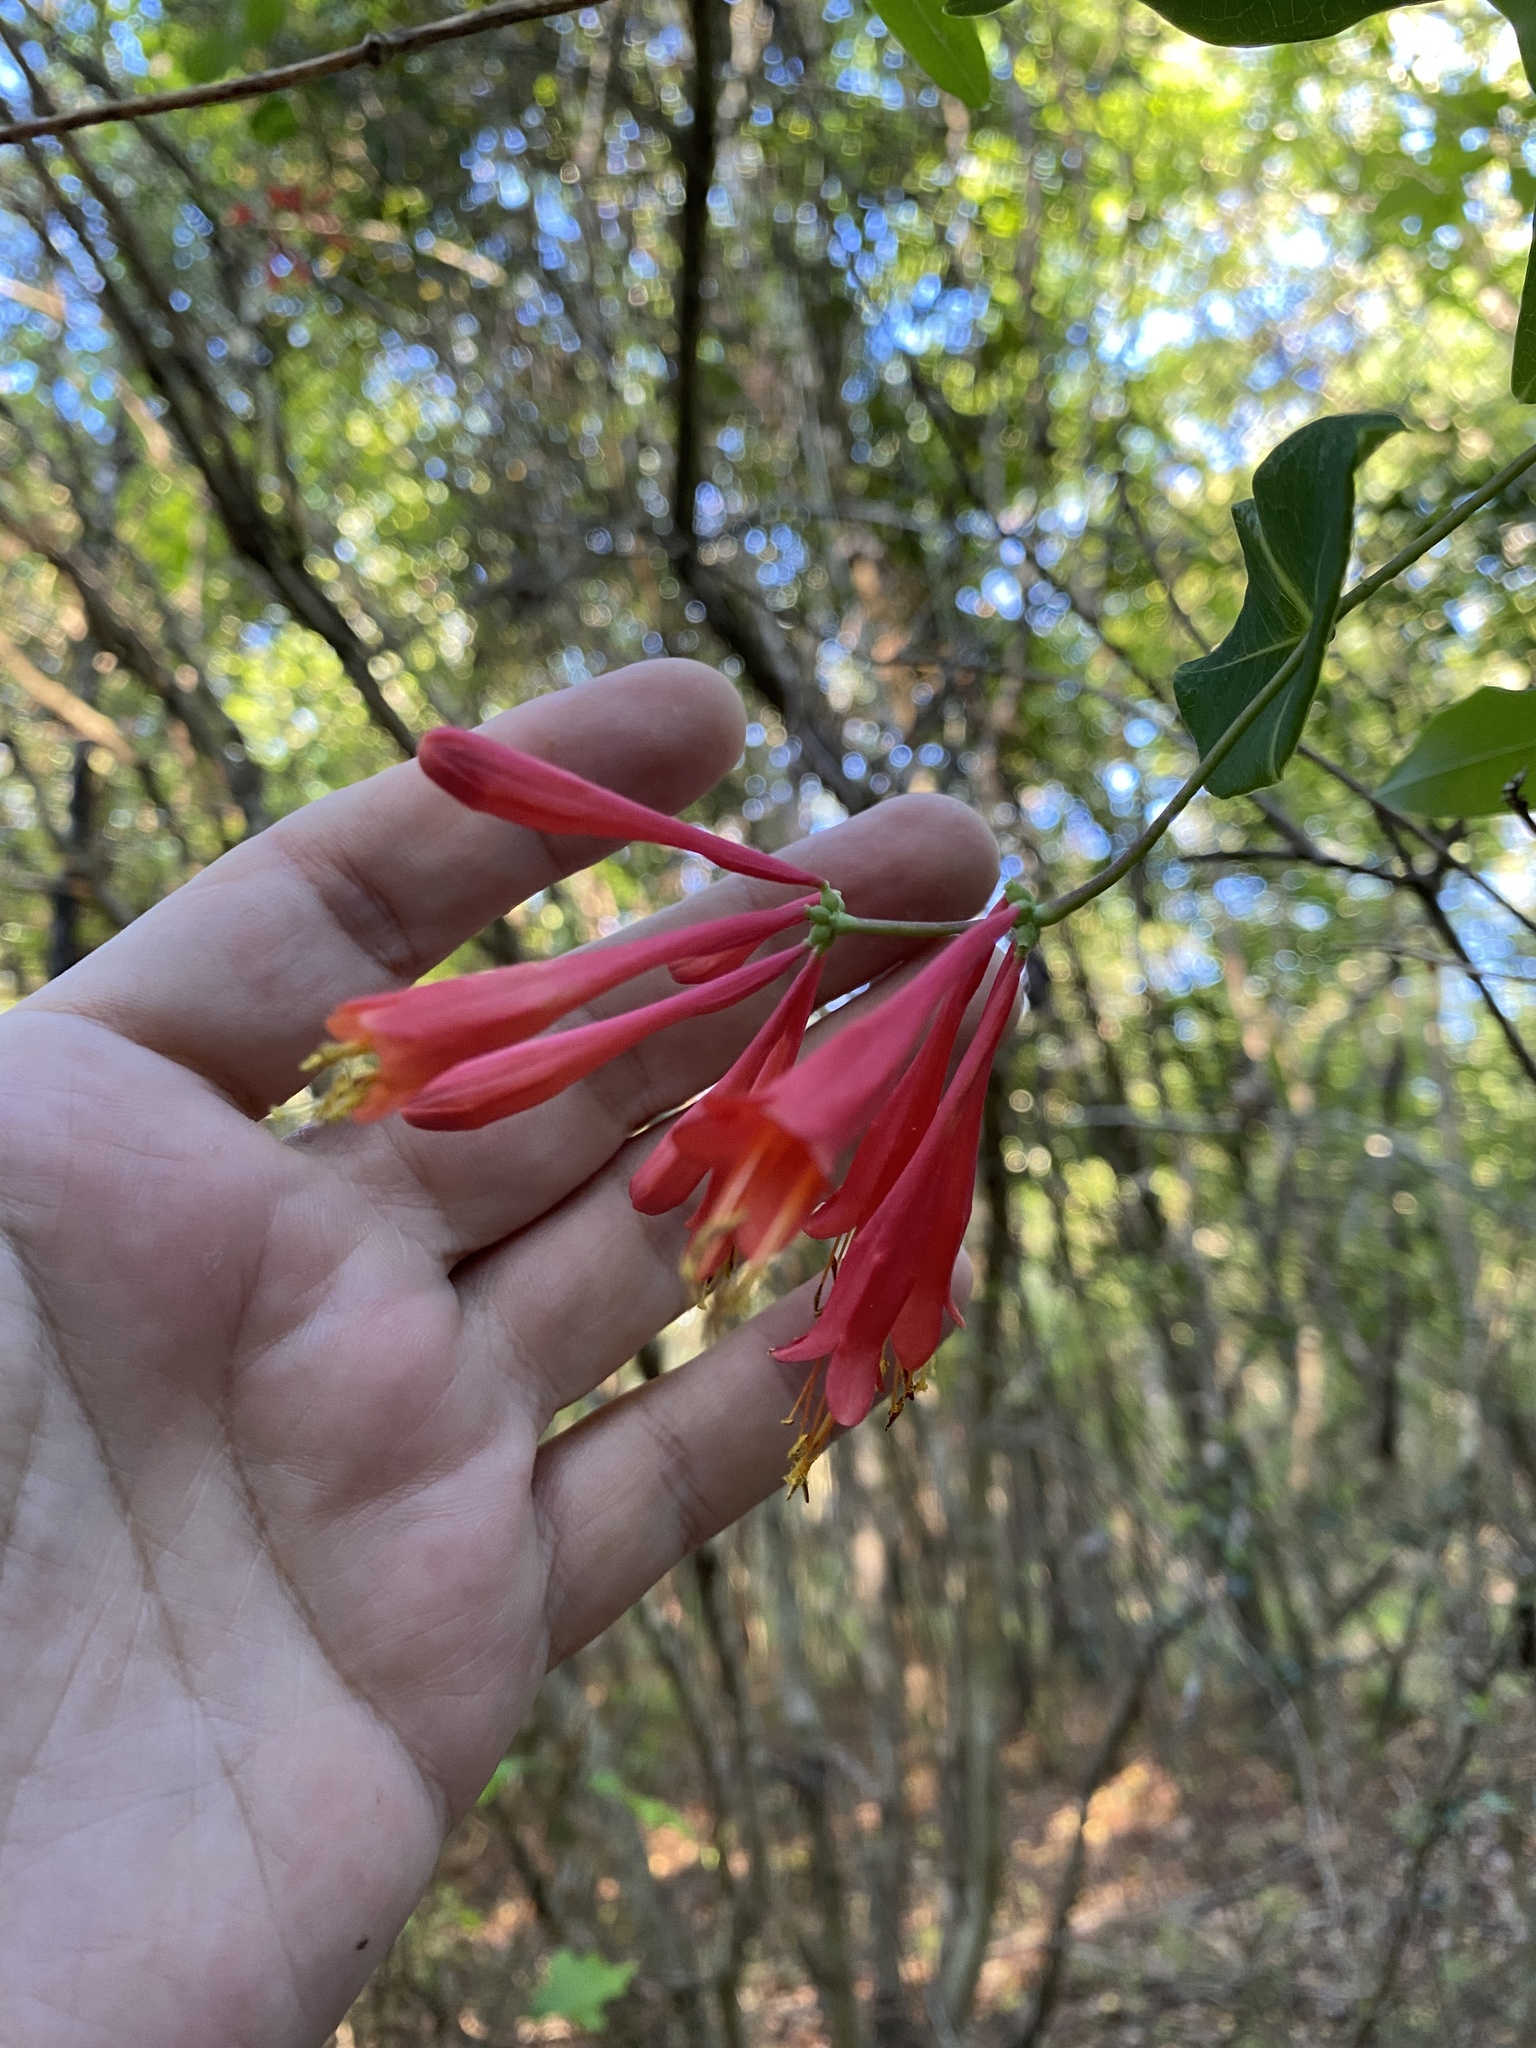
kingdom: Plantae
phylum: Tracheophyta
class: Magnoliopsida
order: Dipsacales
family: Caprifoliaceae
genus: Lonicera
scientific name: Lonicera sempervirens
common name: Coral honeysuckle
